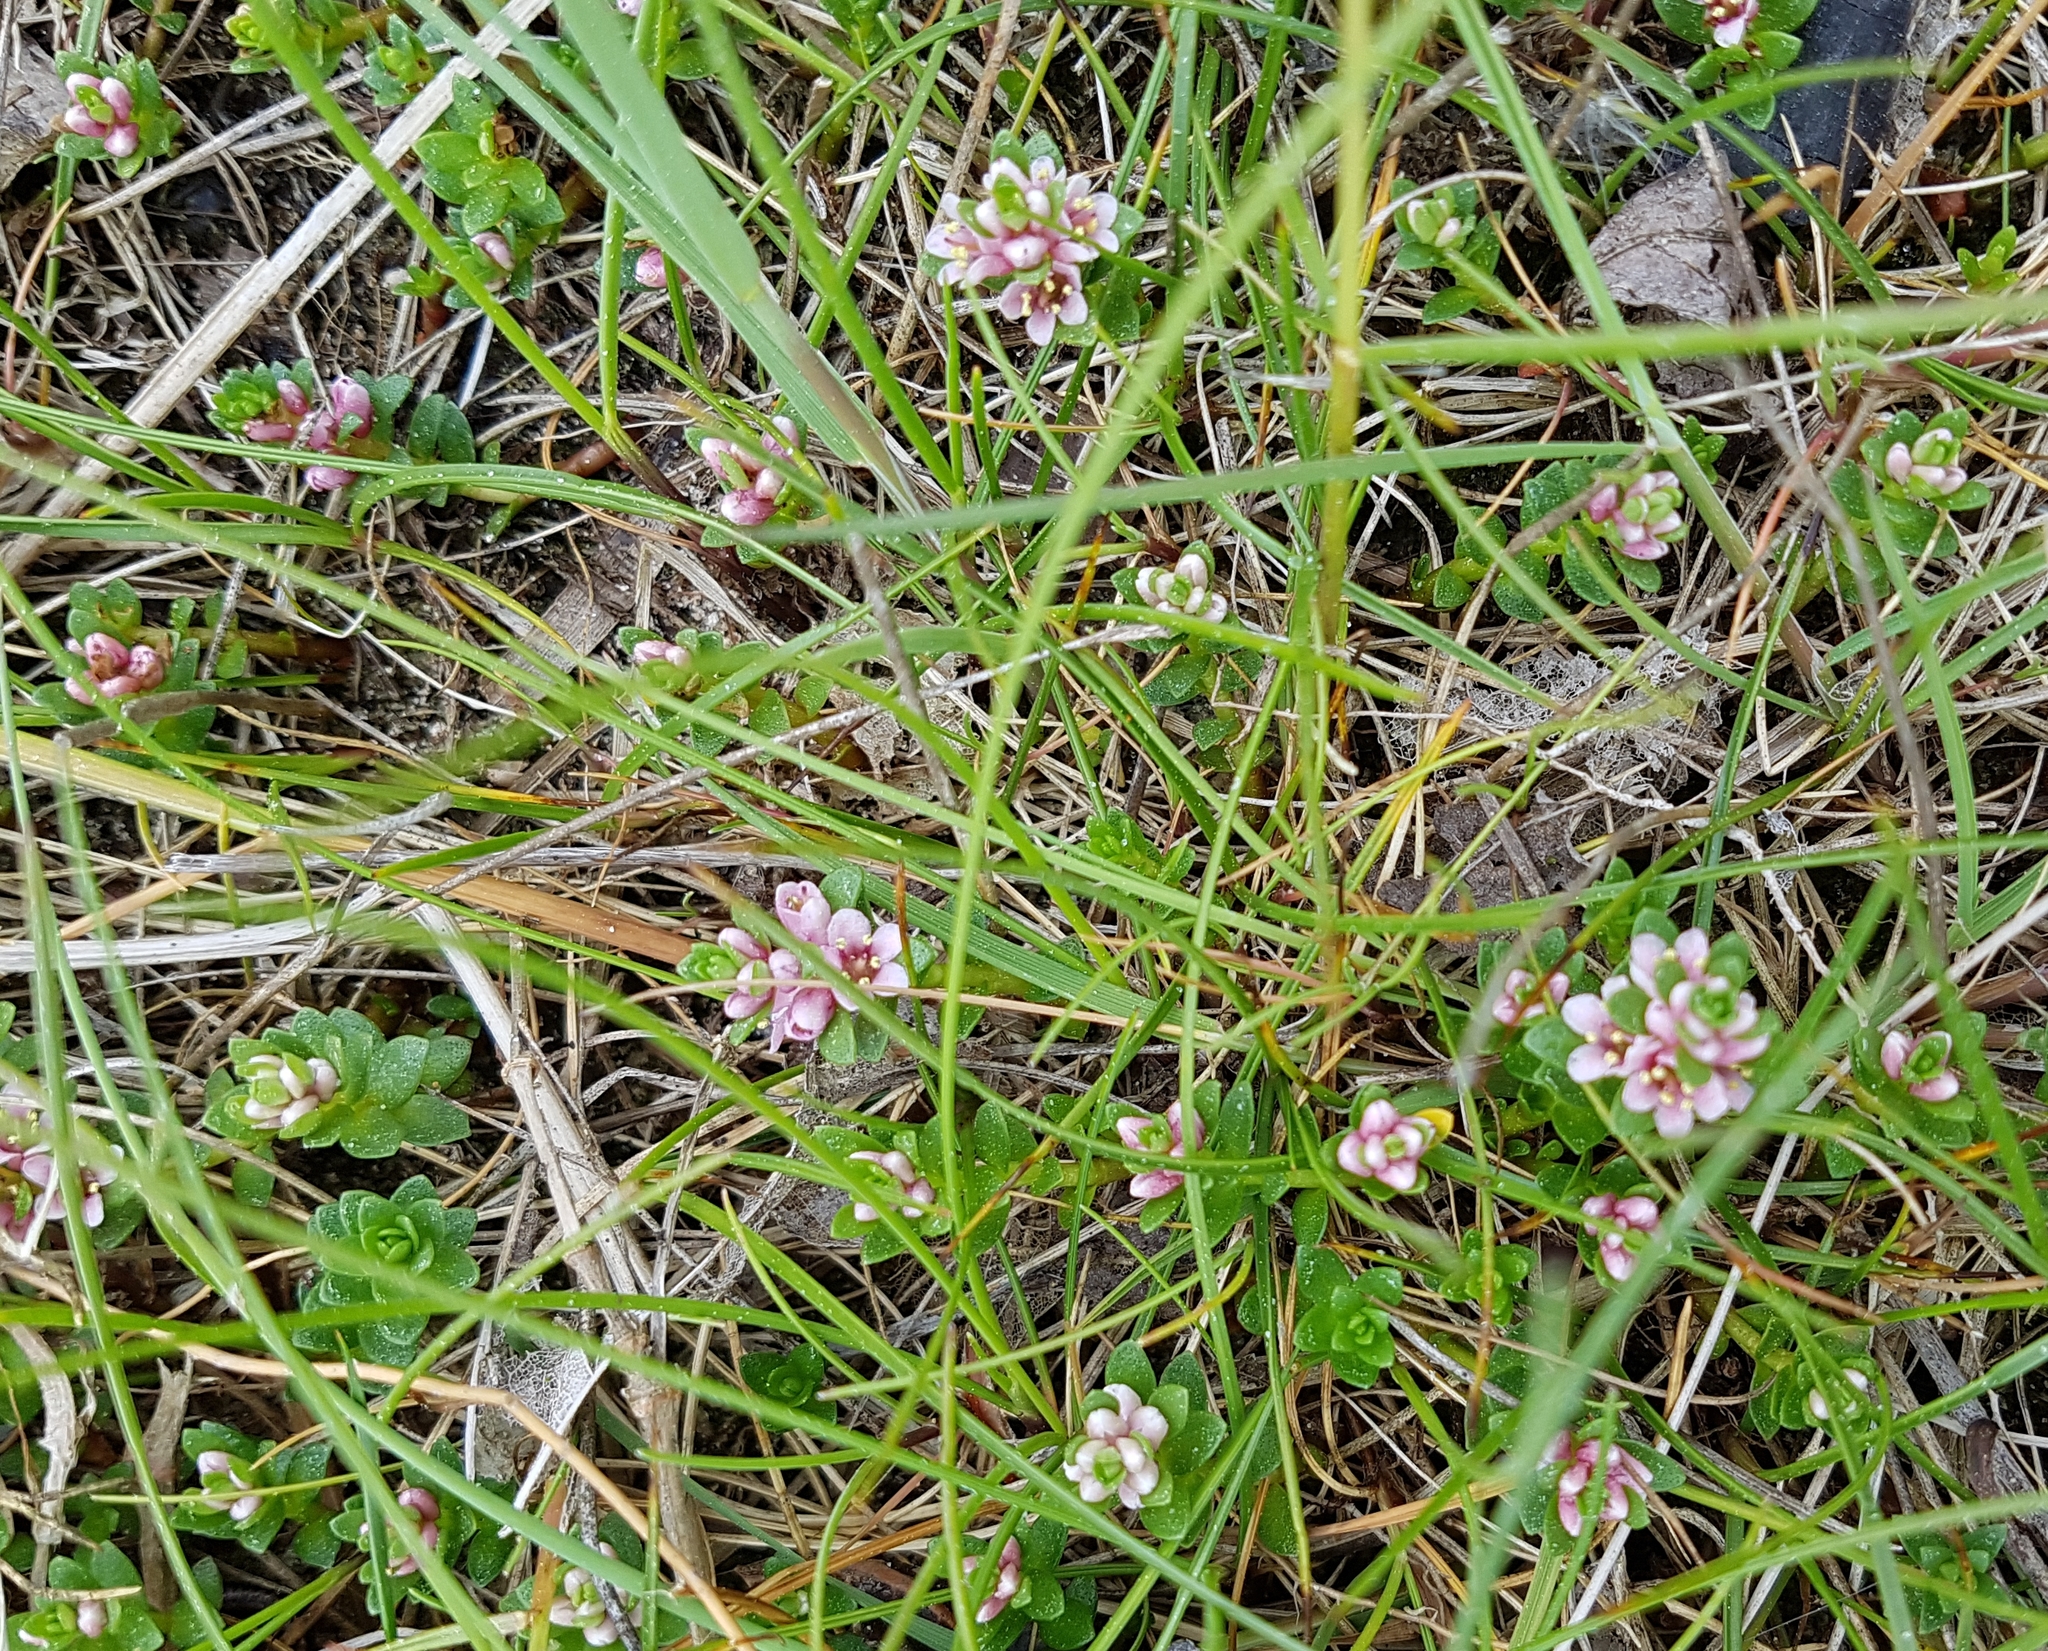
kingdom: Plantae
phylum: Tracheophyta
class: Magnoliopsida
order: Ericales
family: Primulaceae
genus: Lysimachia
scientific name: Lysimachia maritima
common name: Sea milkwort
